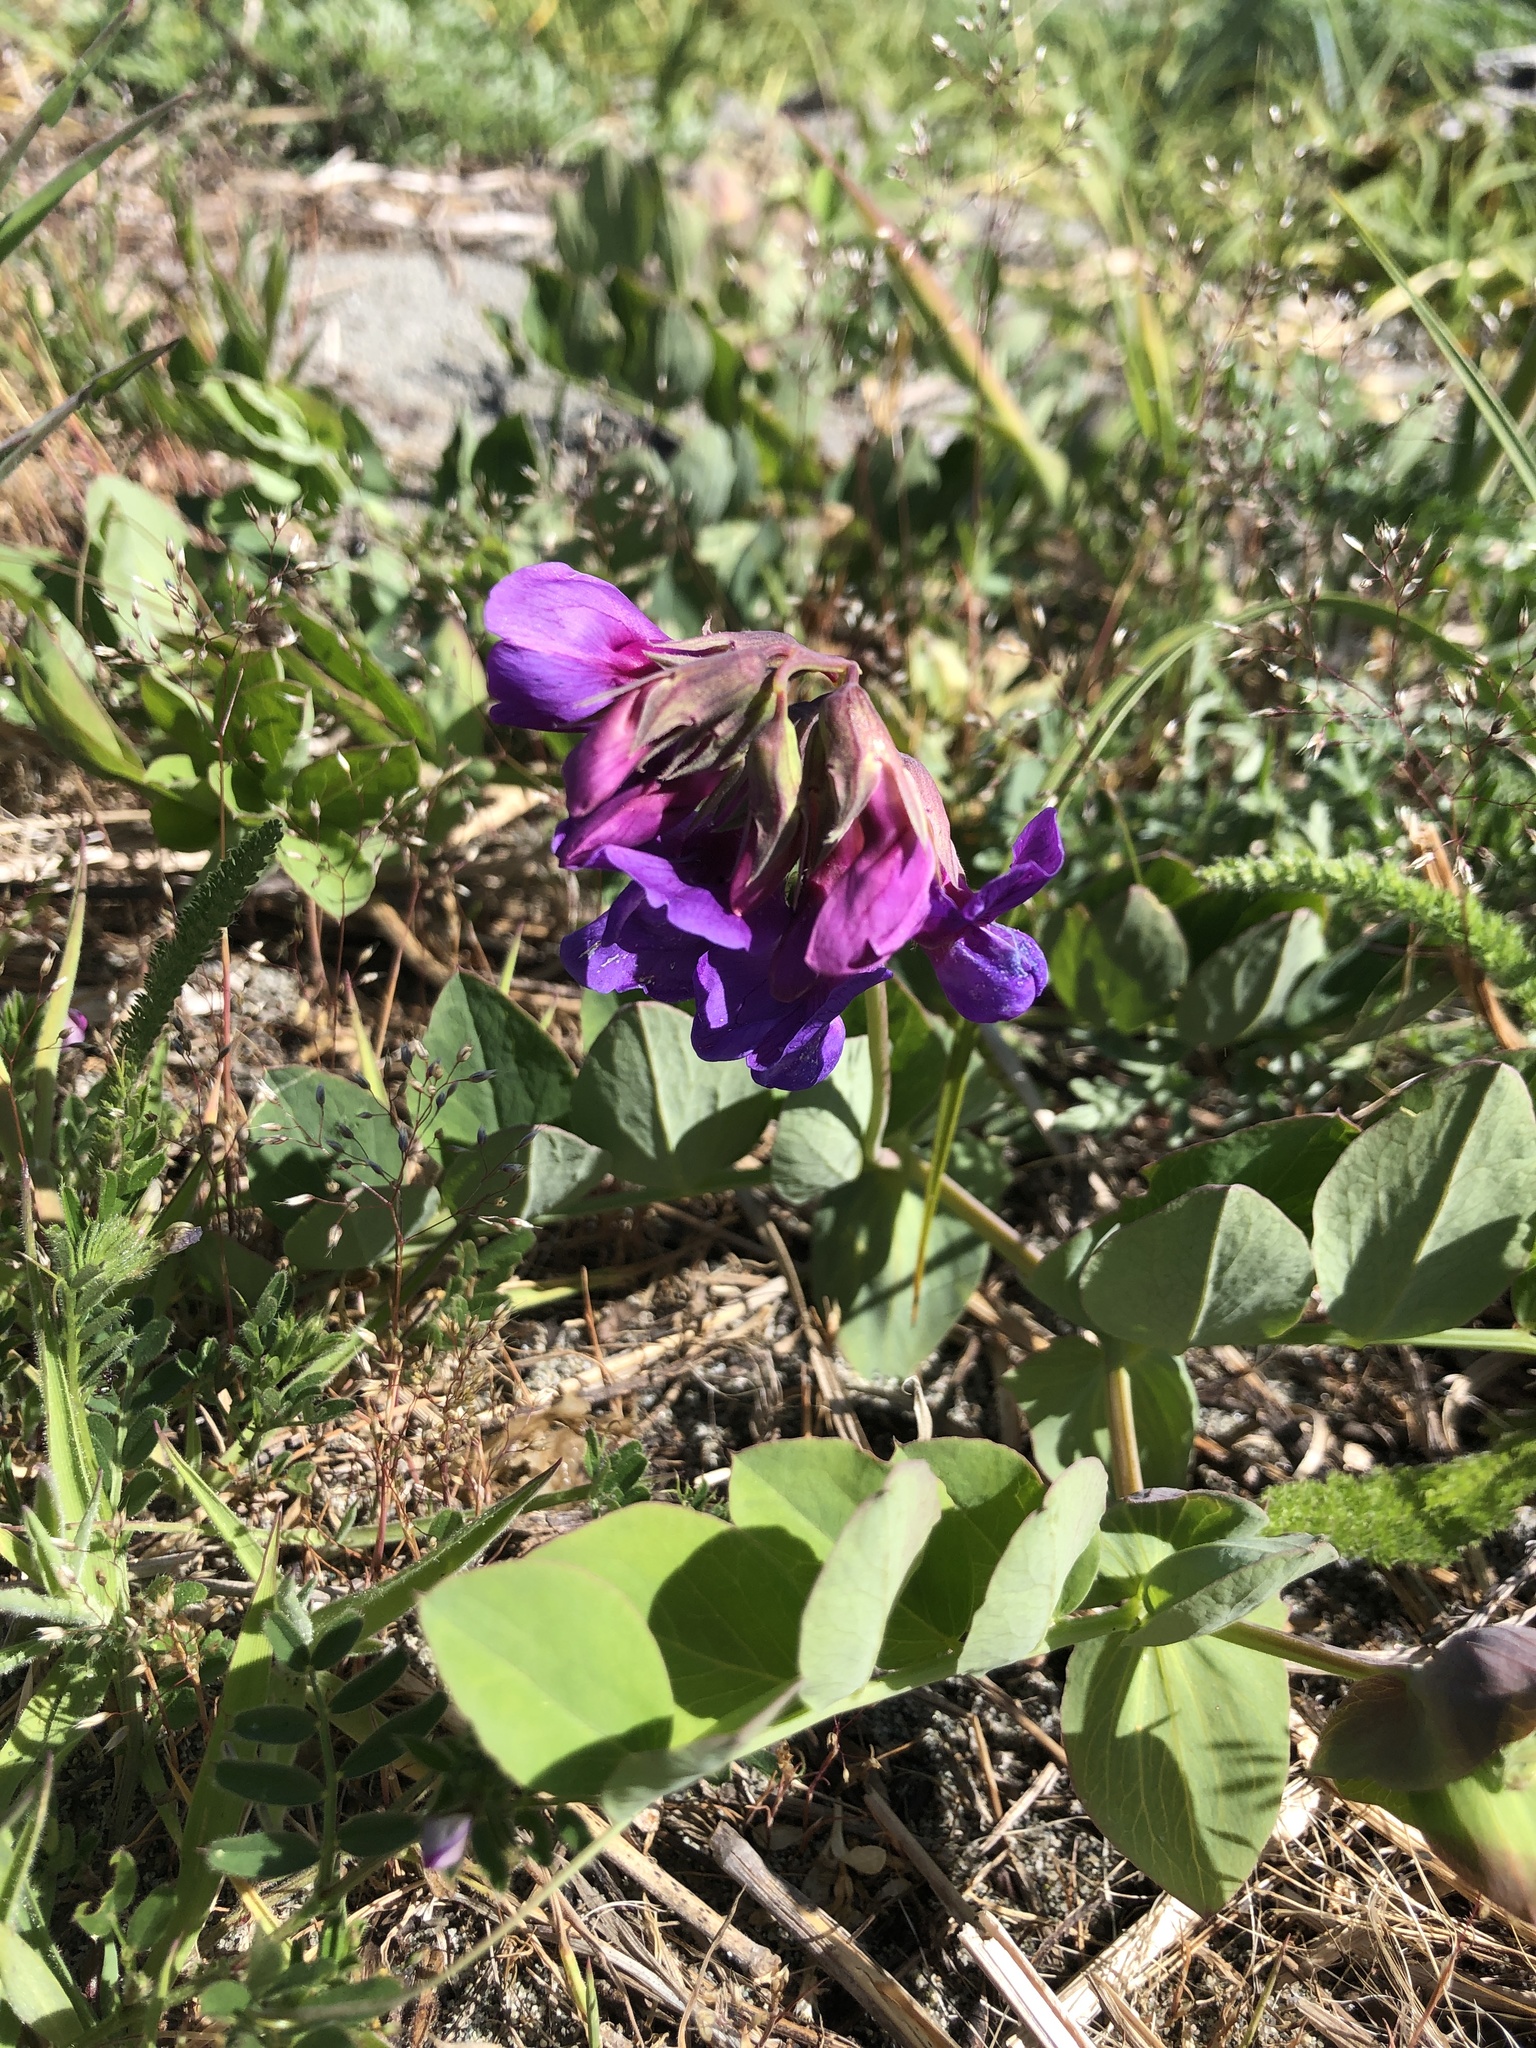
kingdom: Plantae
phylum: Tracheophyta
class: Magnoliopsida
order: Fabales
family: Fabaceae
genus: Lathyrus
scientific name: Lathyrus japonicus
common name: Sea pea
